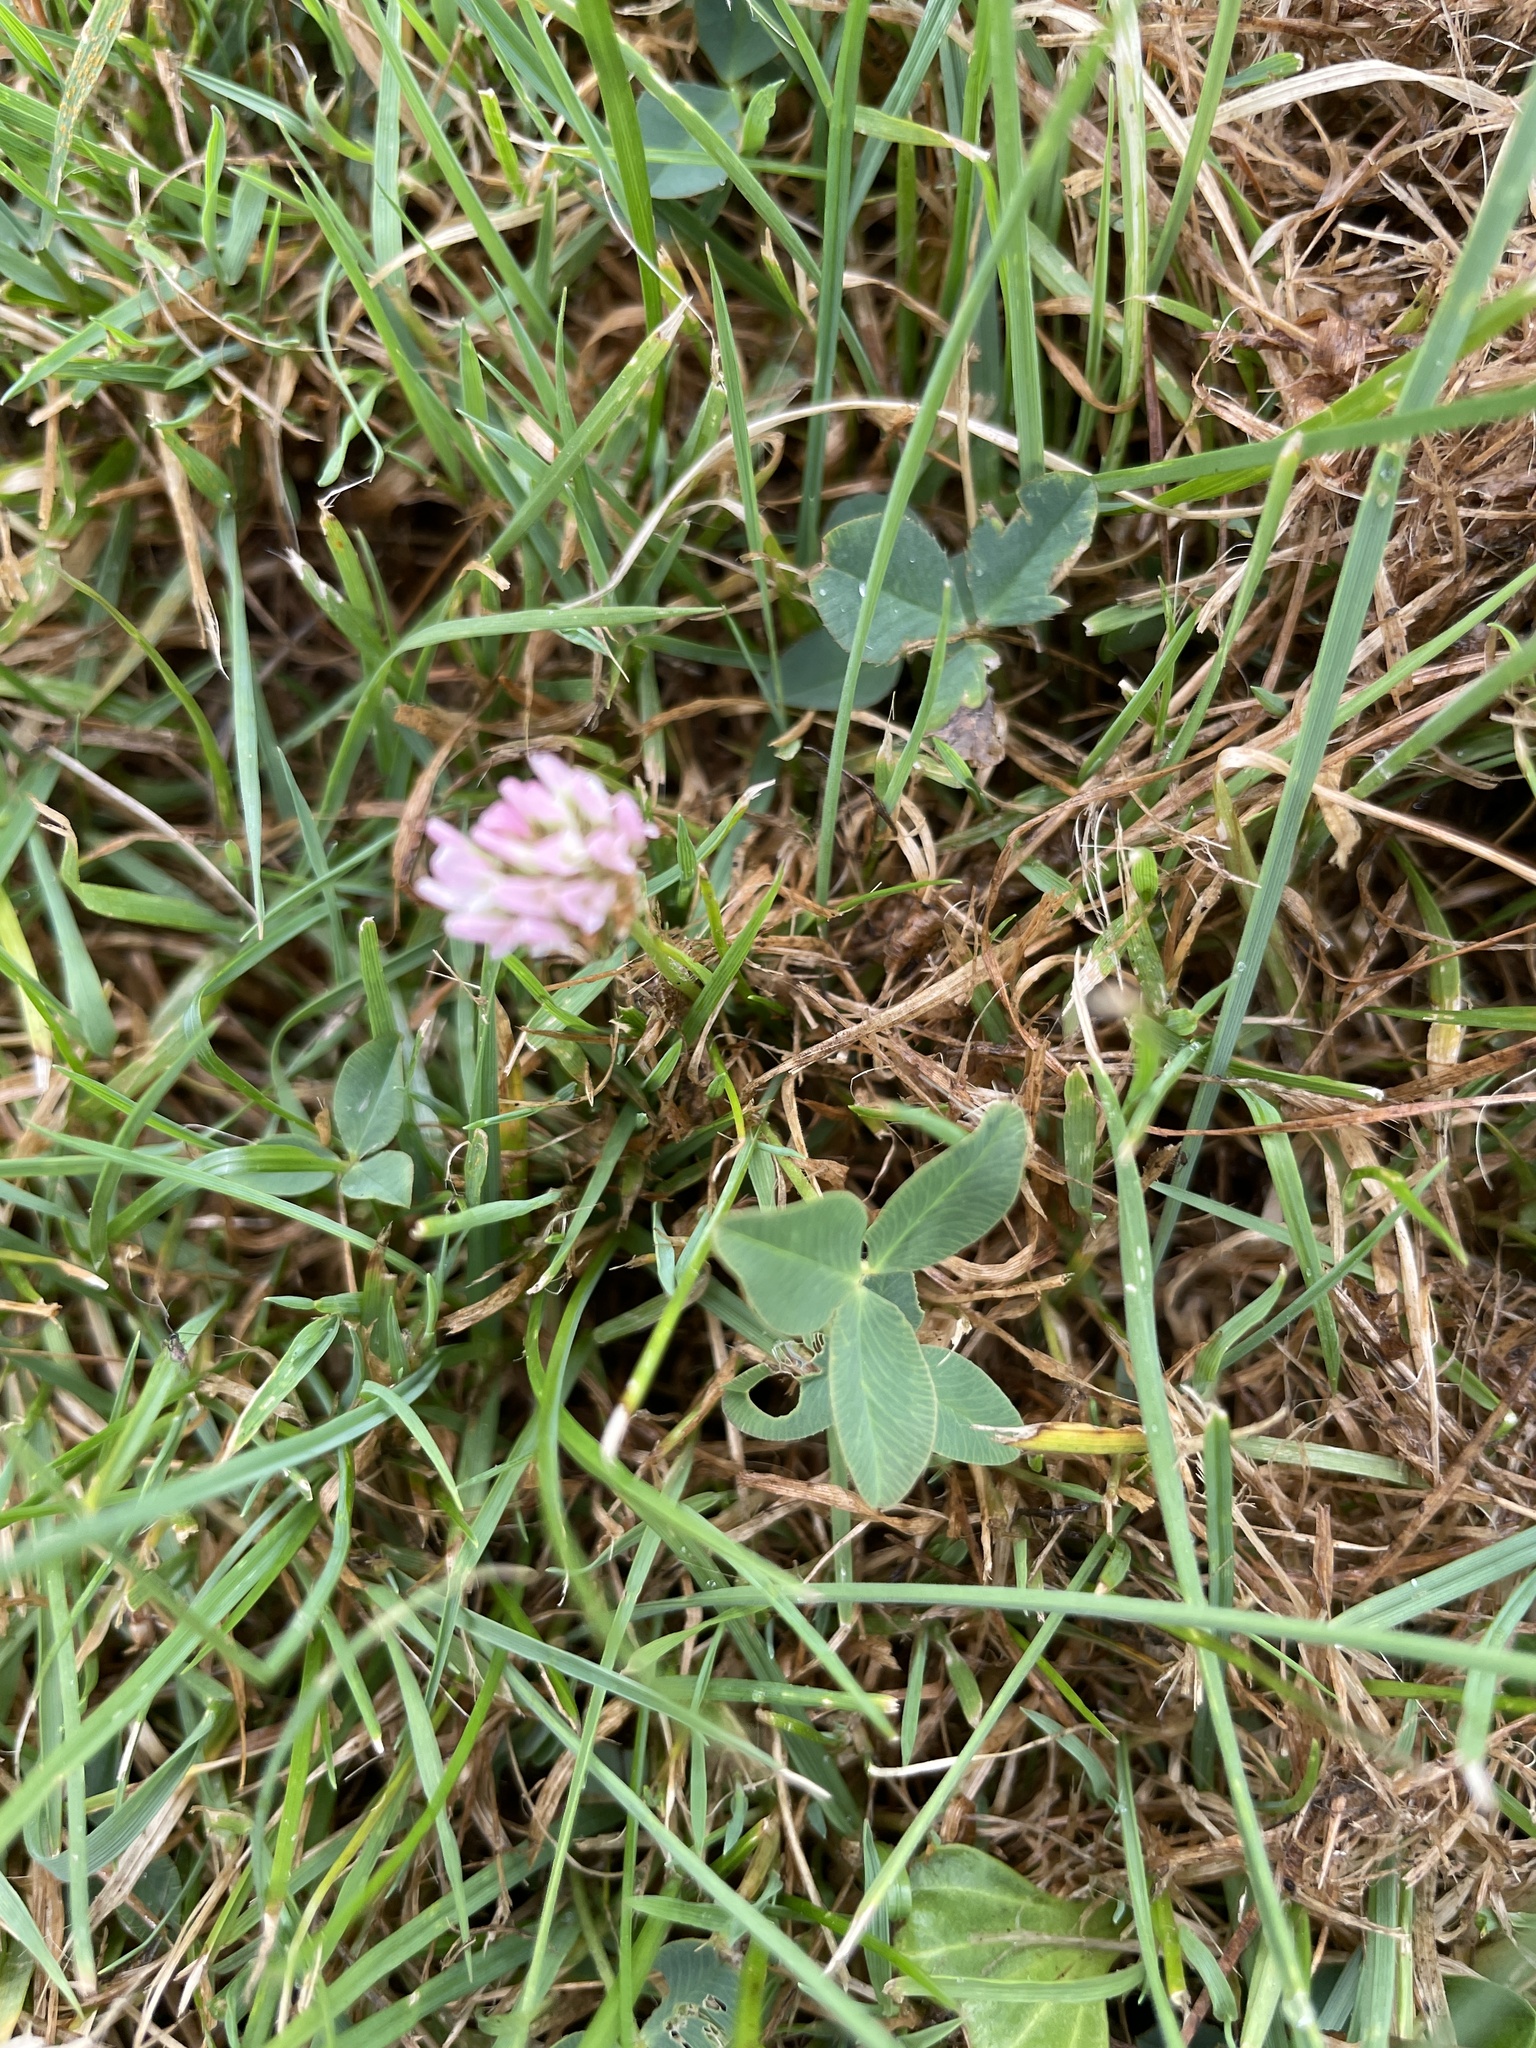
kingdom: Plantae
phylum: Tracheophyta
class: Magnoliopsida
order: Fabales
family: Fabaceae
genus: Trifolium
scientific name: Trifolium fragiferum
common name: Strawberry clover
